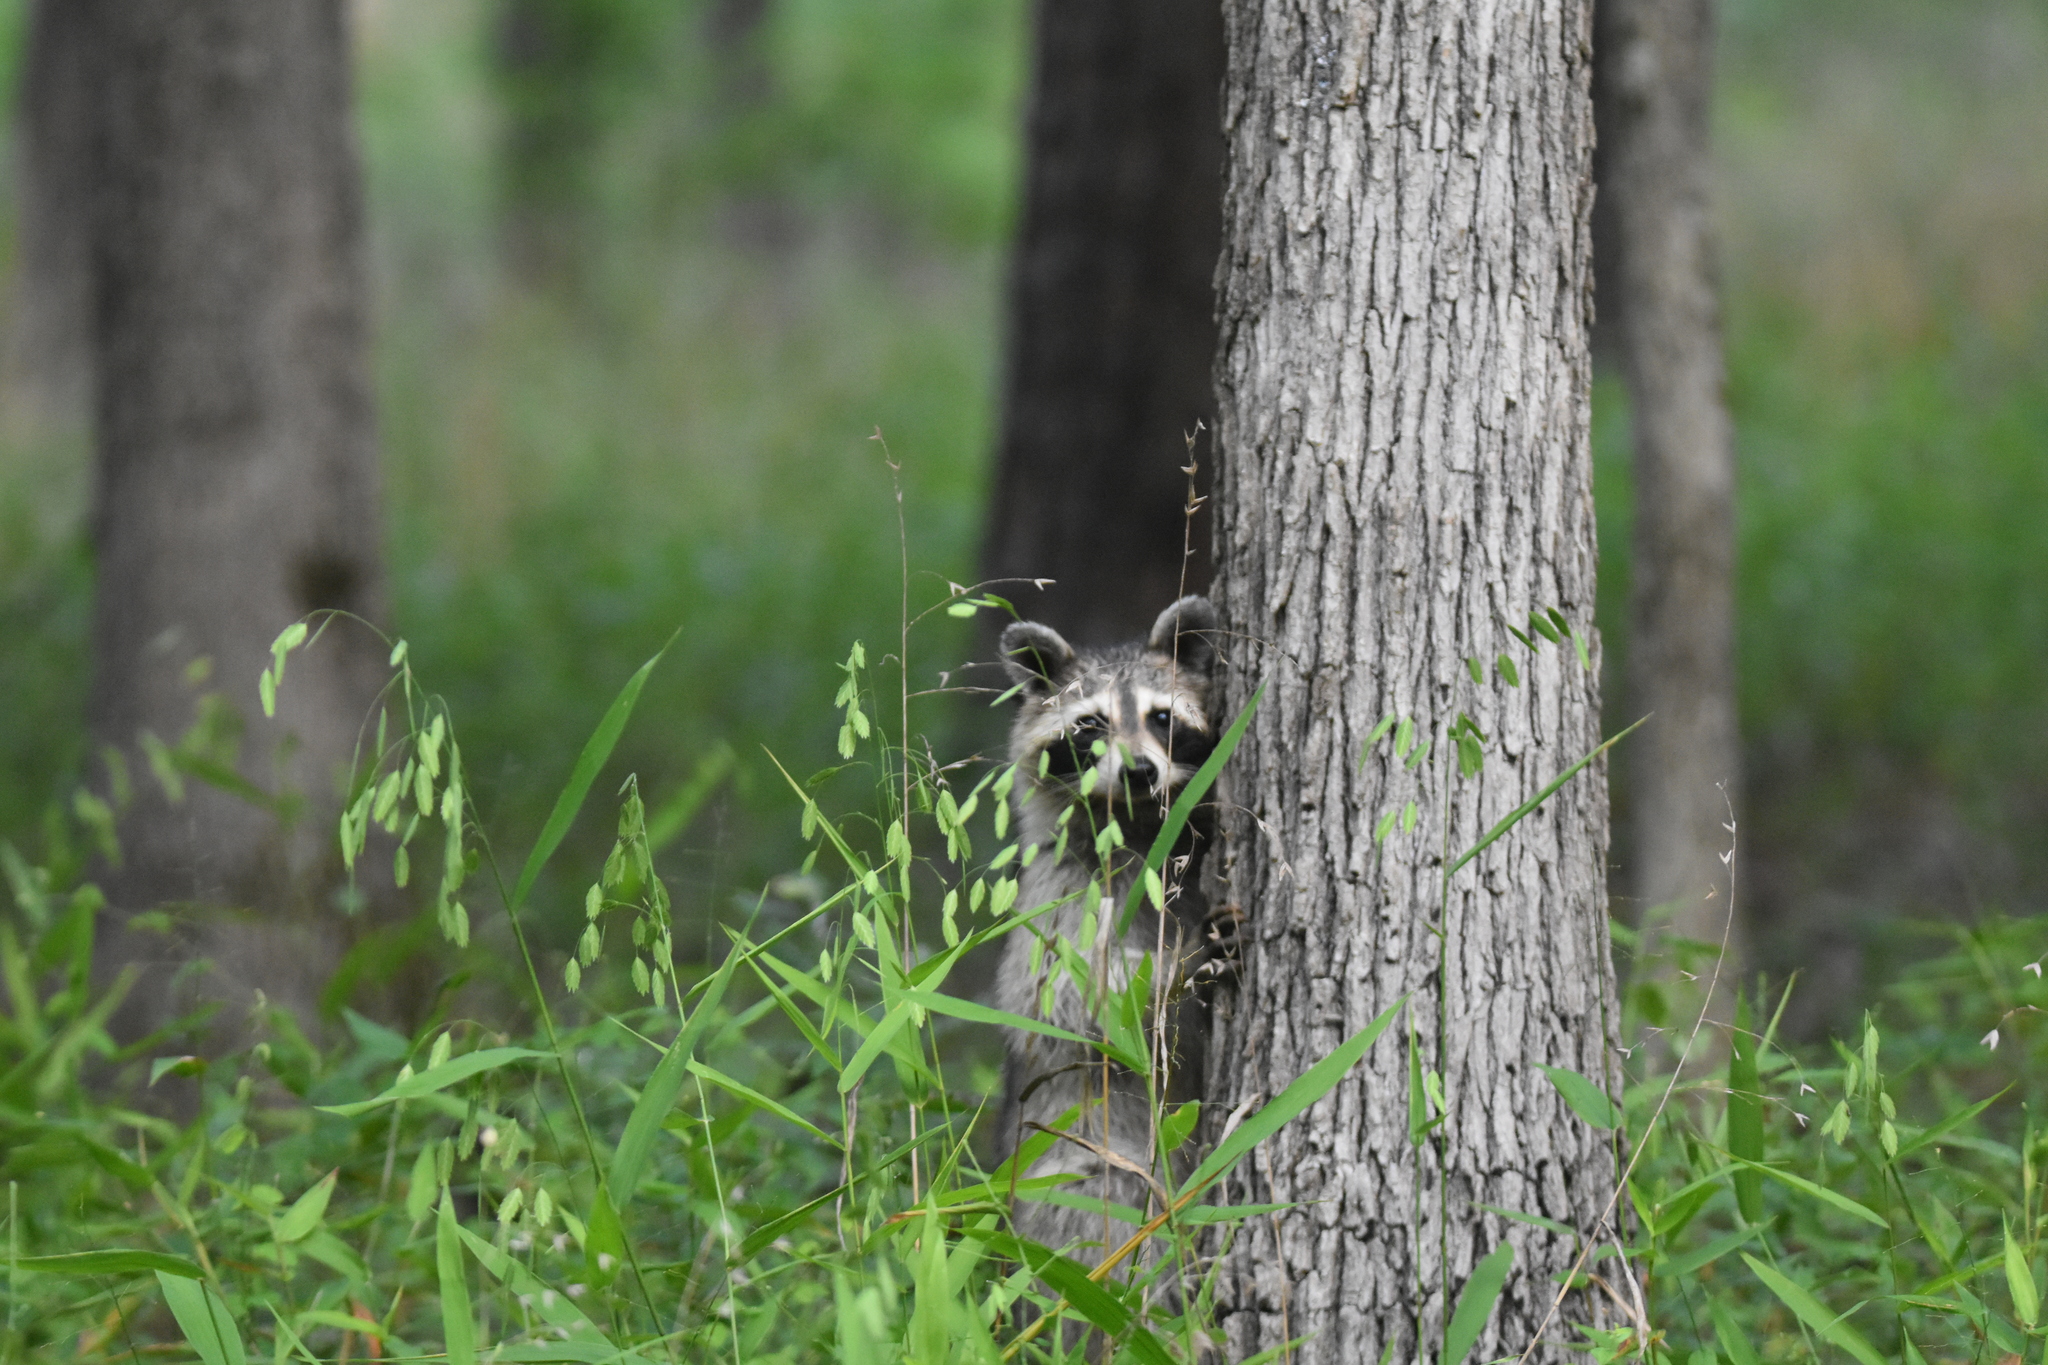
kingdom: Animalia
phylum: Chordata
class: Mammalia
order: Carnivora
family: Procyonidae
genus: Procyon
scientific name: Procyon lotor
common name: Raccoon
